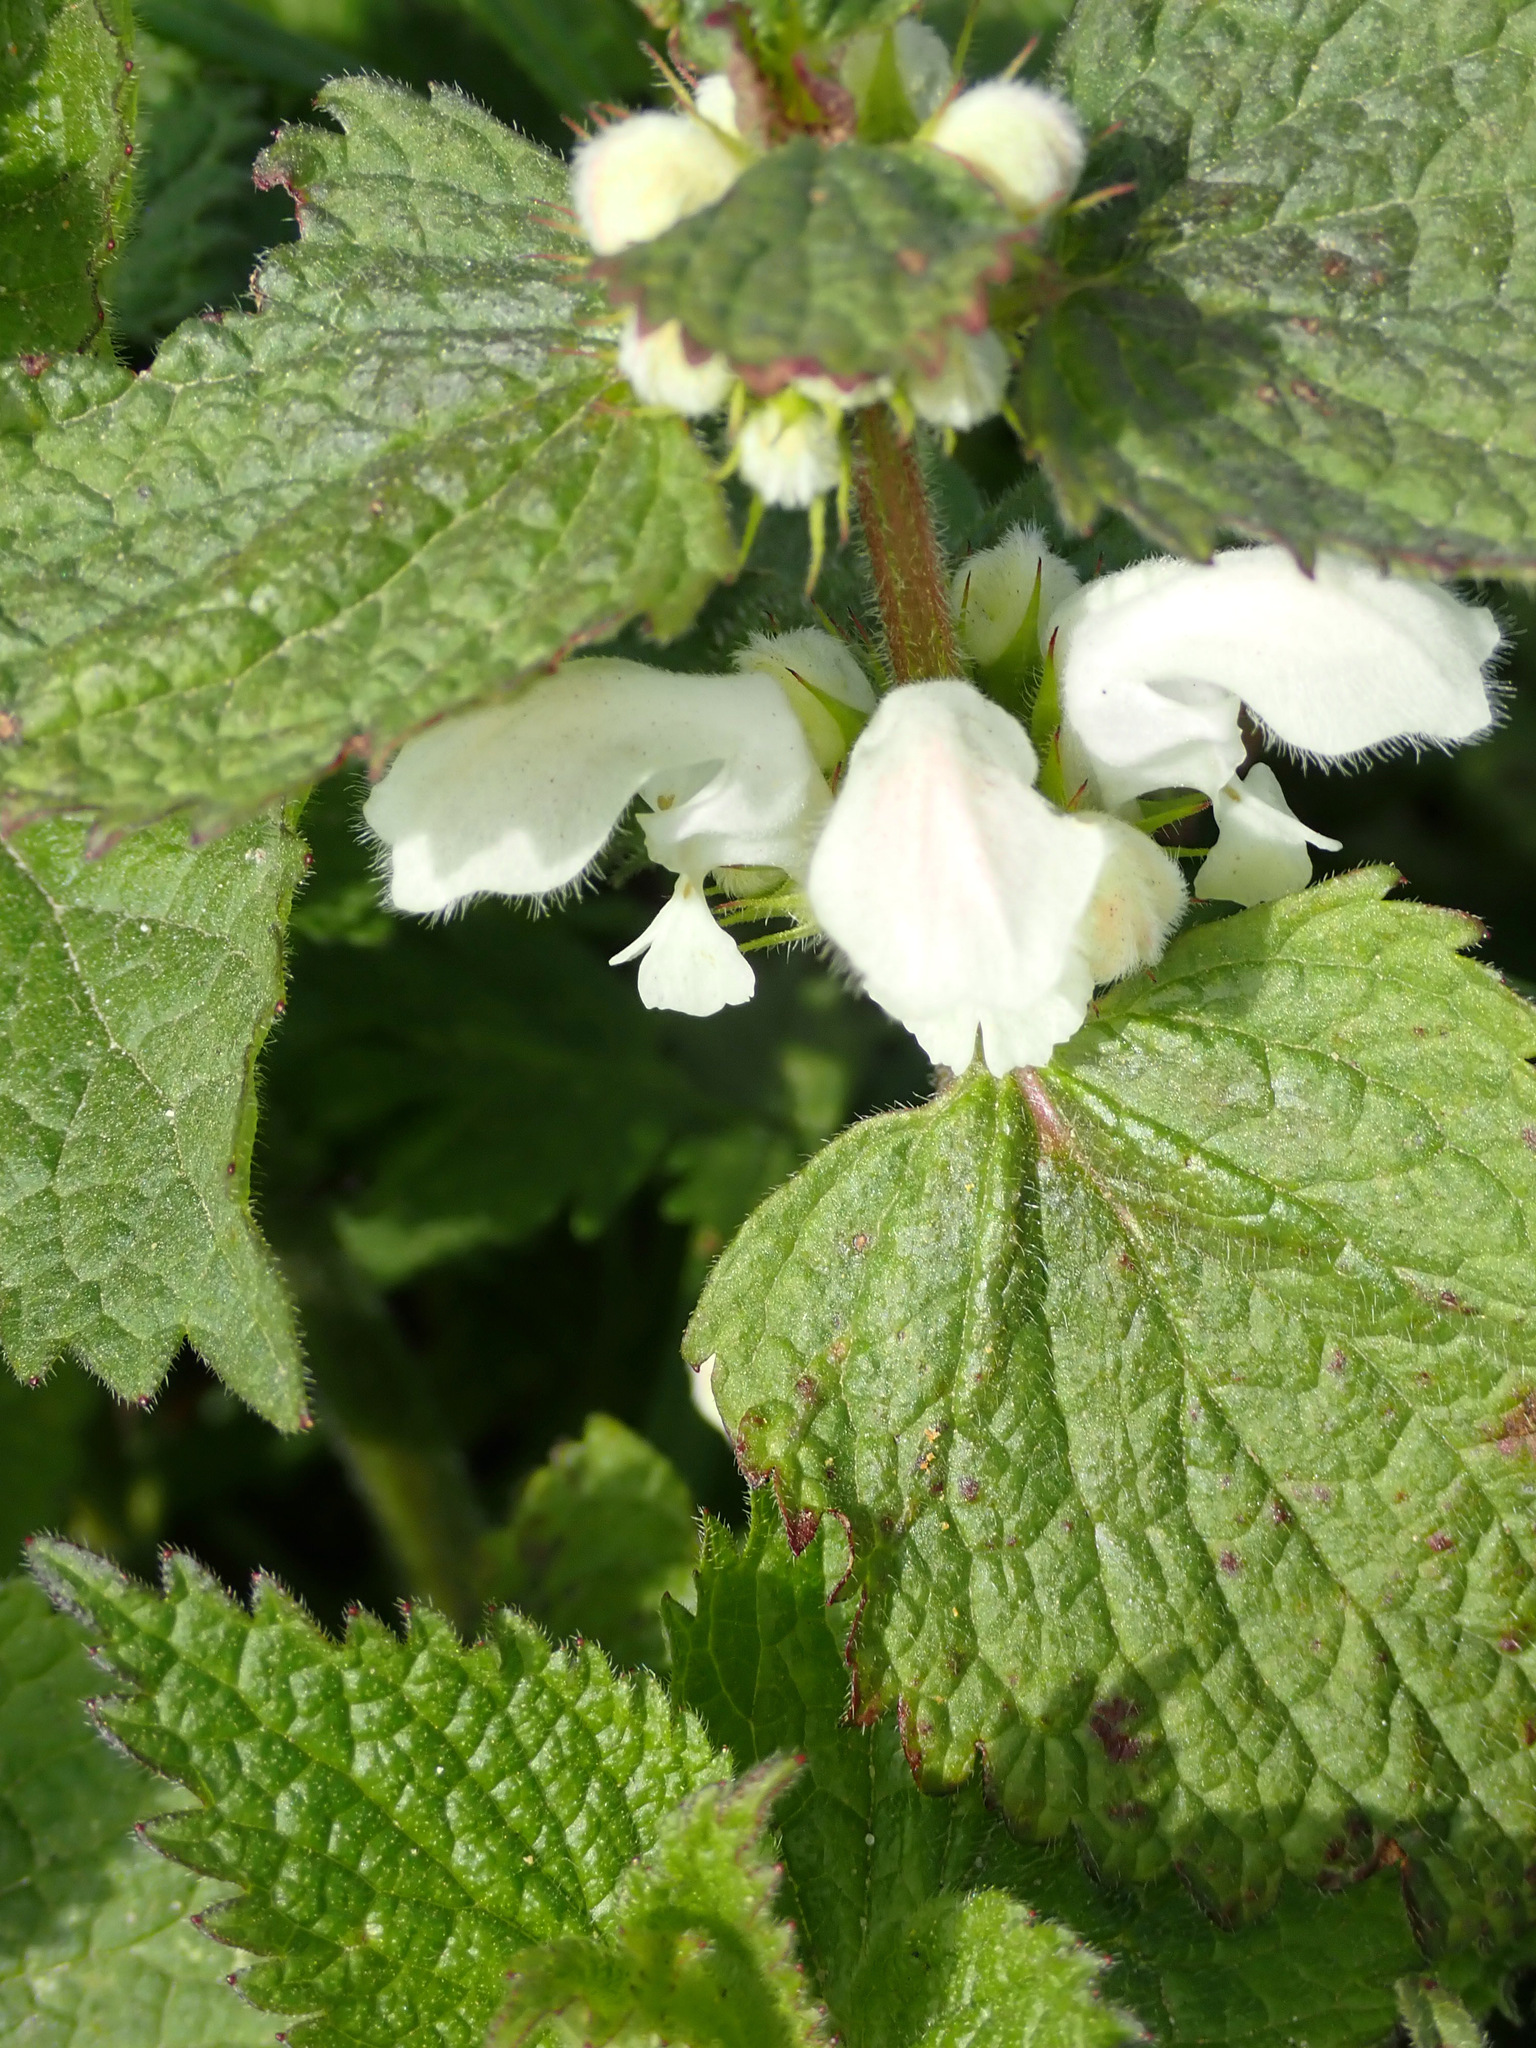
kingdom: Plantae
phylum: Tracheophyta
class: Magnoliopsida
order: Lamiales
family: Lamiaceae
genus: Lamium
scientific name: Lamium album
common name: White dead-nettle
